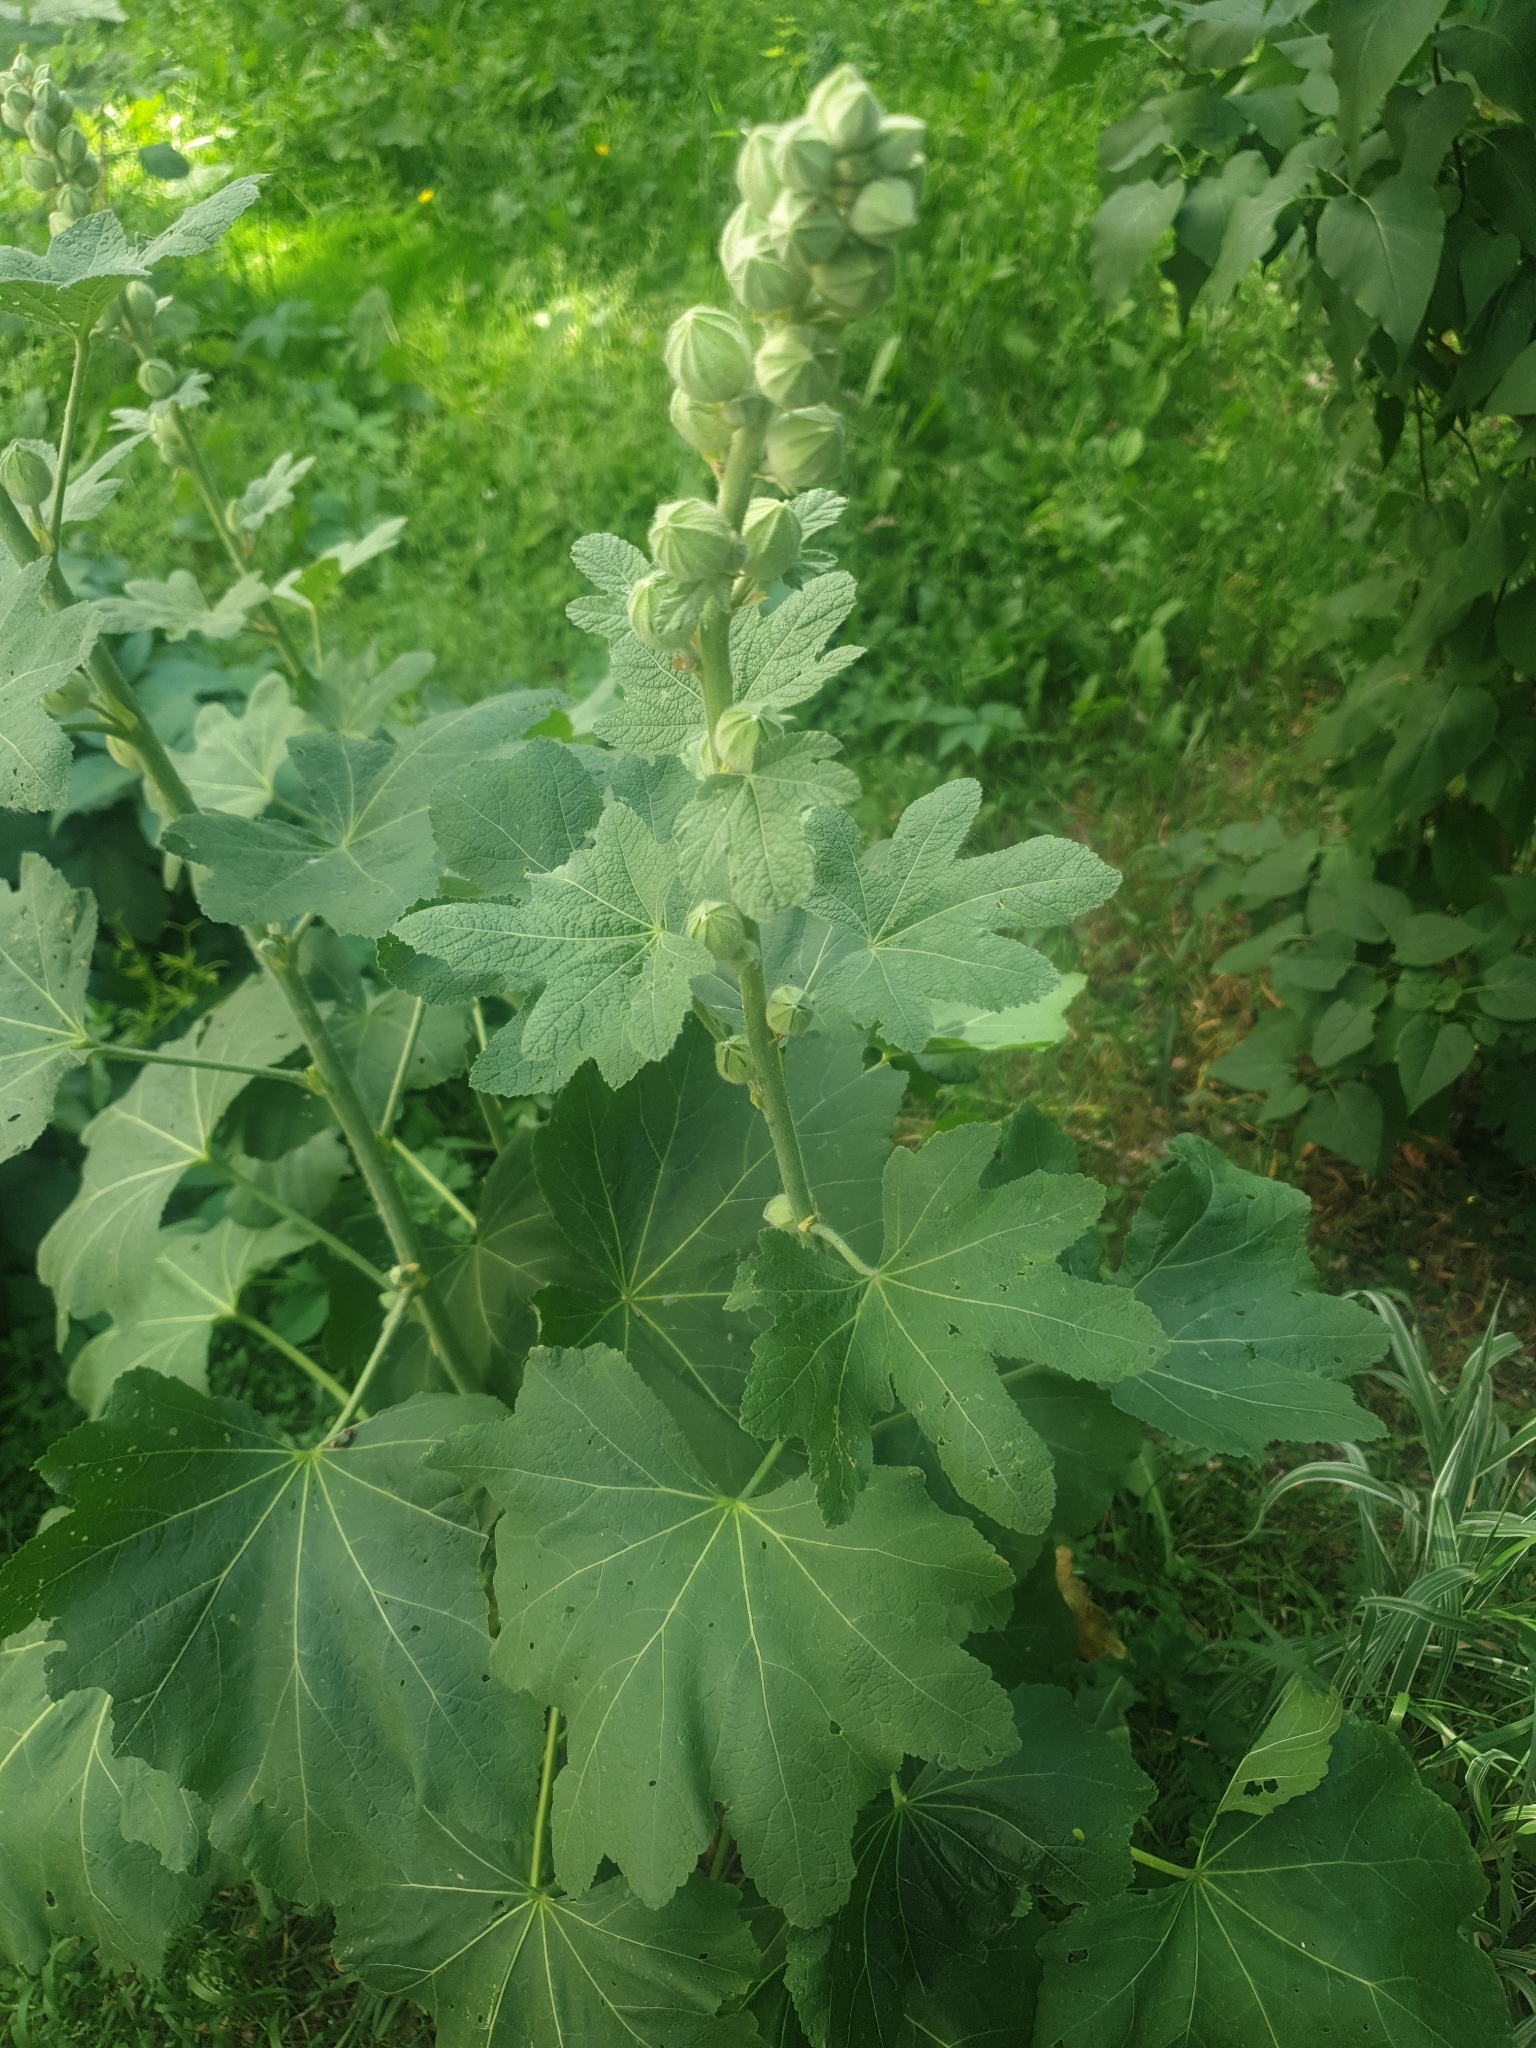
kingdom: Plantae
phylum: Tracheophyta
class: Magnoliopsida
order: Malvales
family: Malvaceae
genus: Alcea
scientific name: Alcea rosea
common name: Hollyhock
